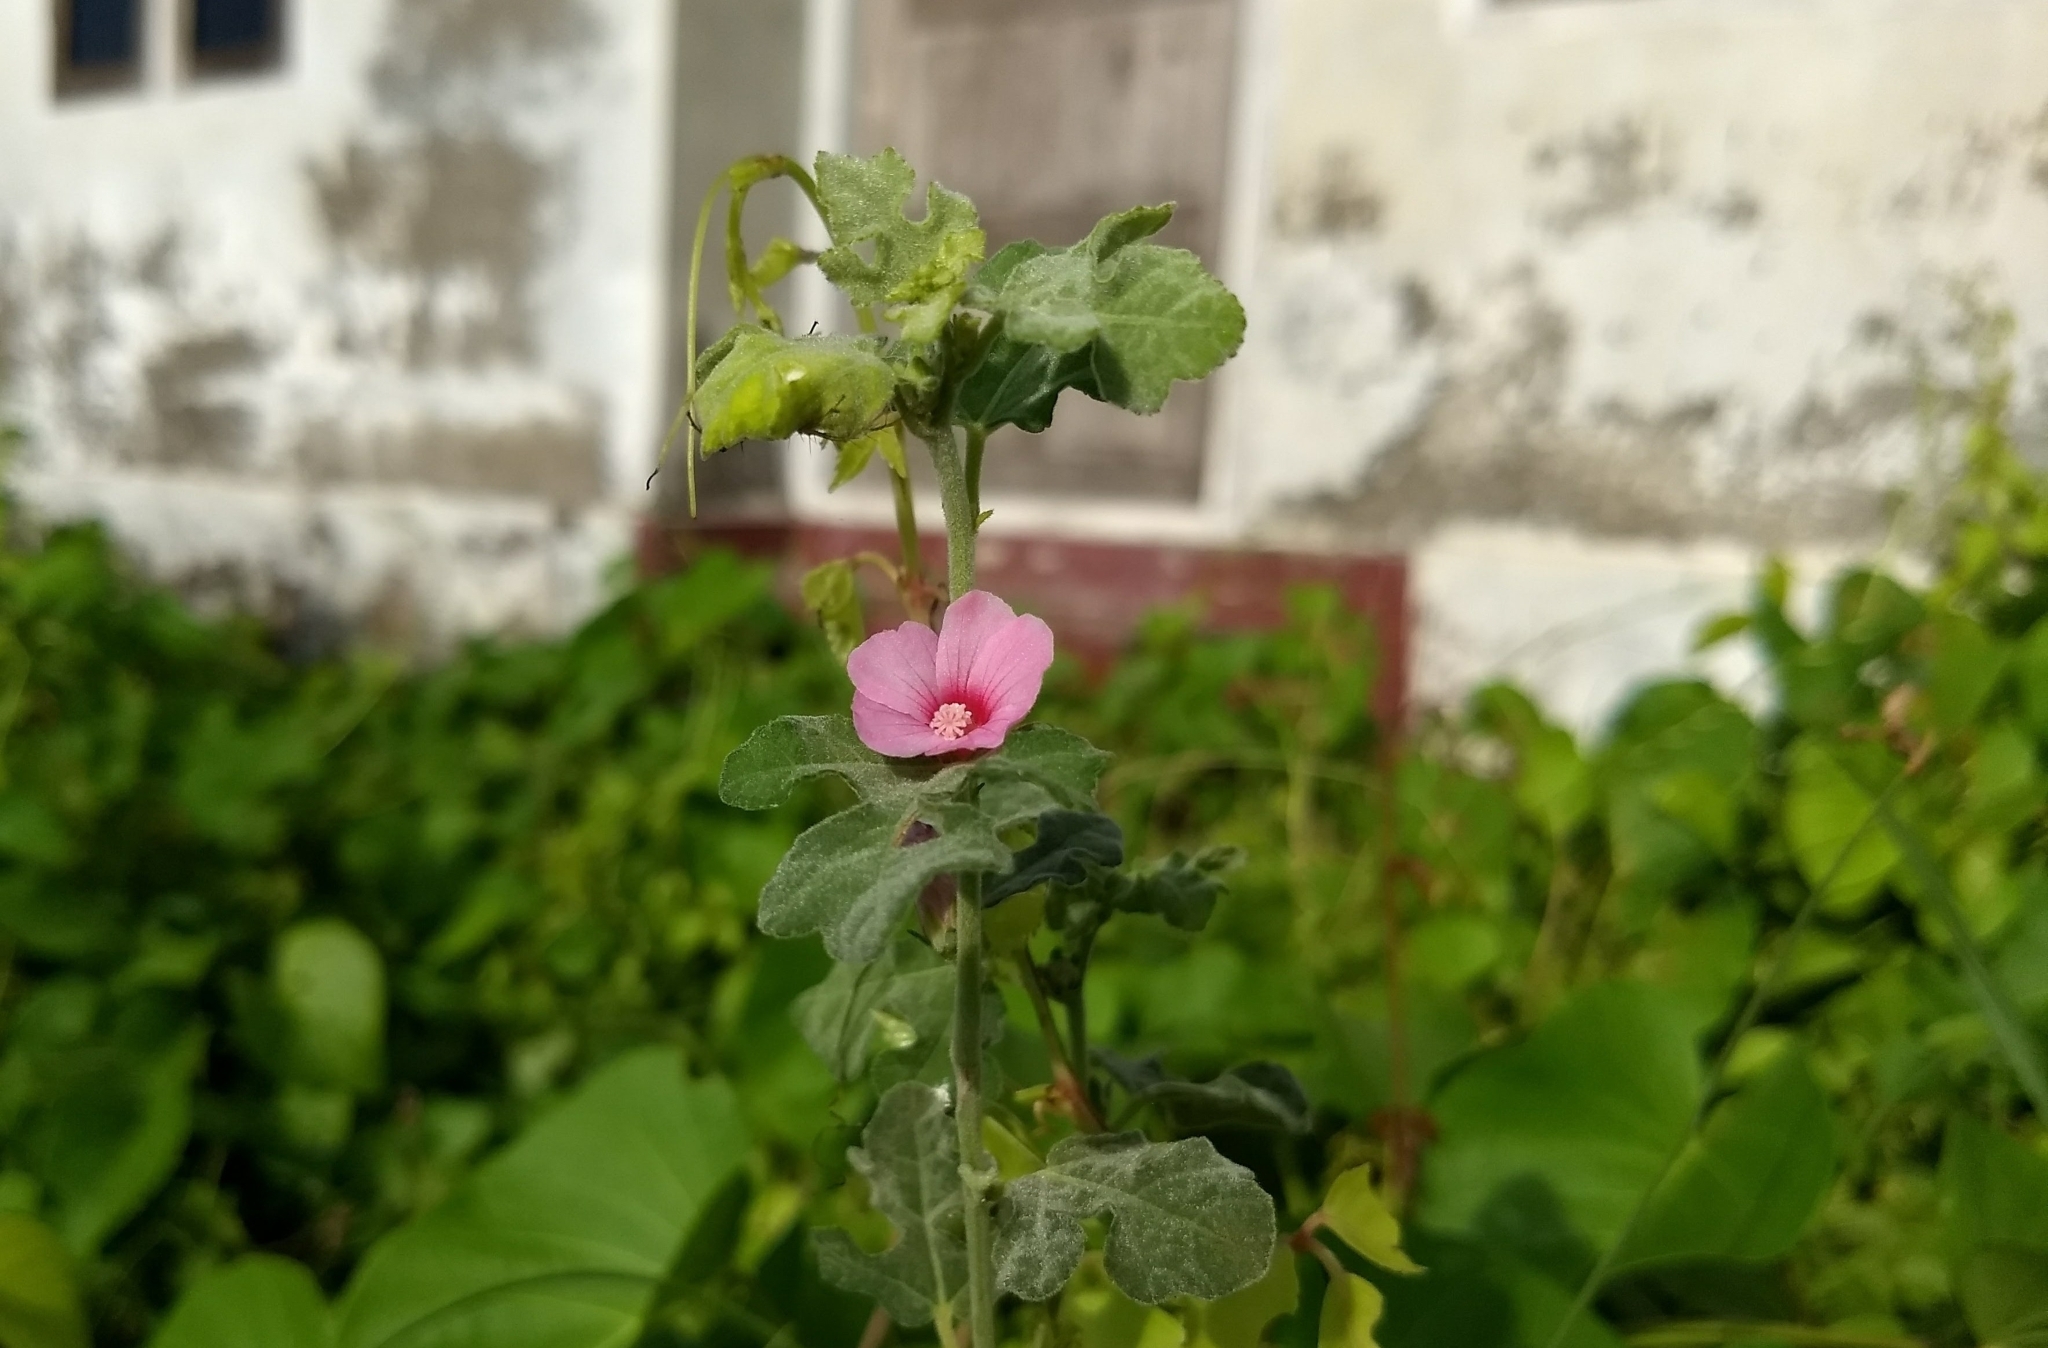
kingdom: Plantae
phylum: Tracheophyta
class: Magnoliopsida
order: Malvales
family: Malvaceae
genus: Urena
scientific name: Urena procumbens
